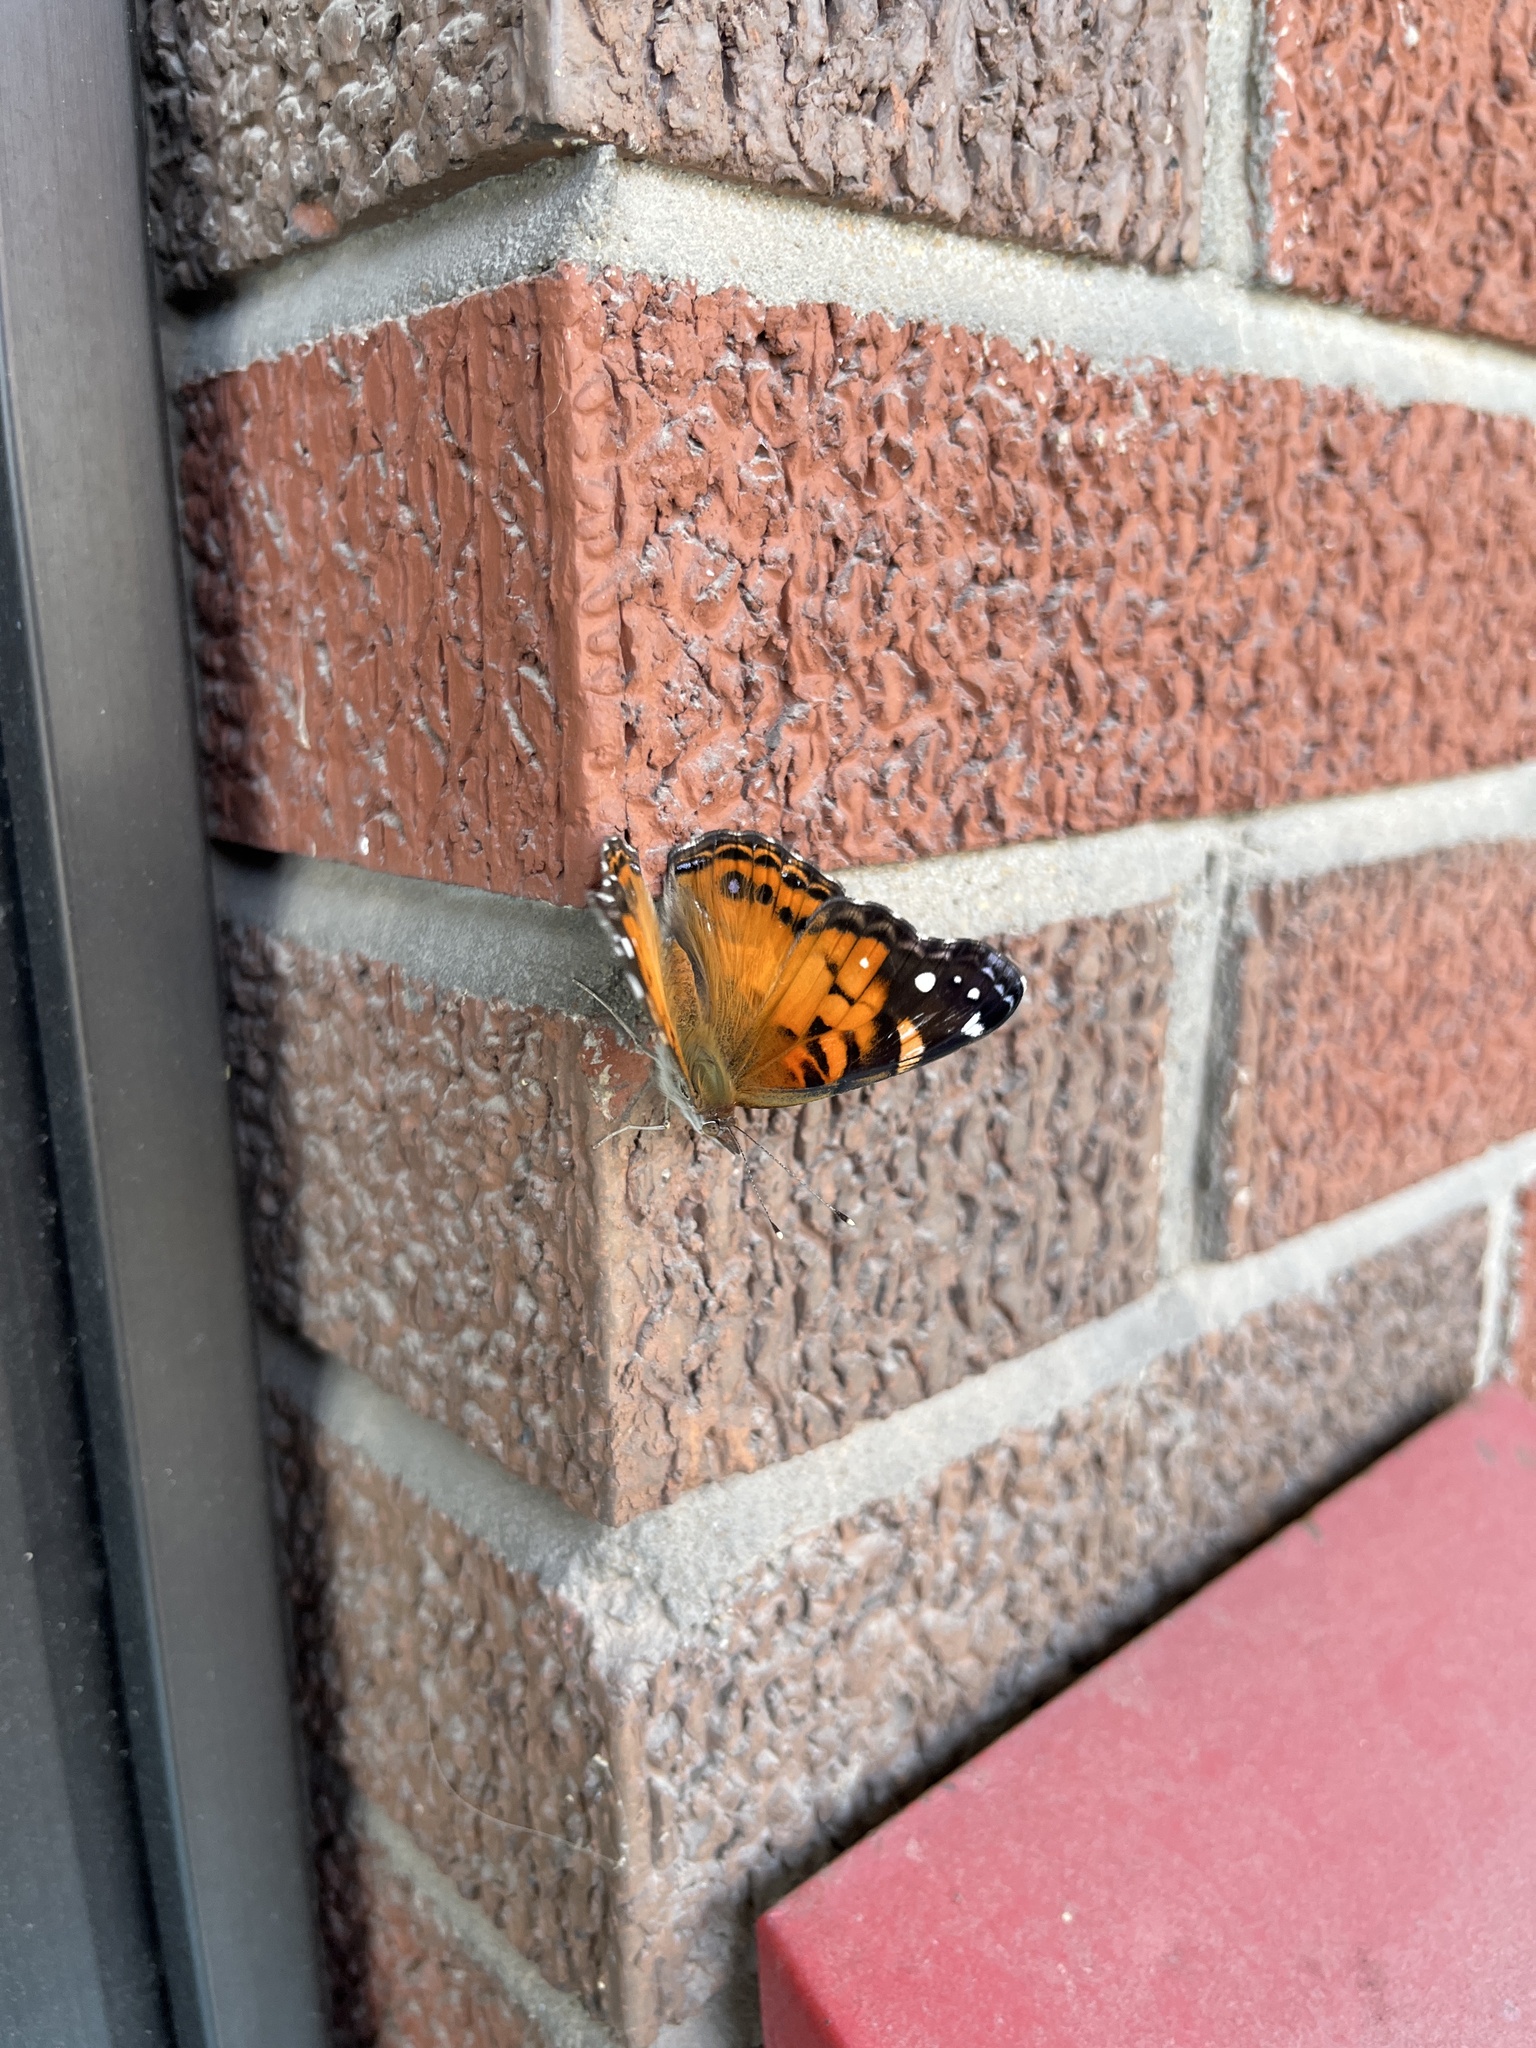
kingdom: Animalia
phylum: Arthropoda
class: Insecta
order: Lepidoptera
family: Nymphalidae
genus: Vanessa
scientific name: Vanessa virginiensis
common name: American lady
